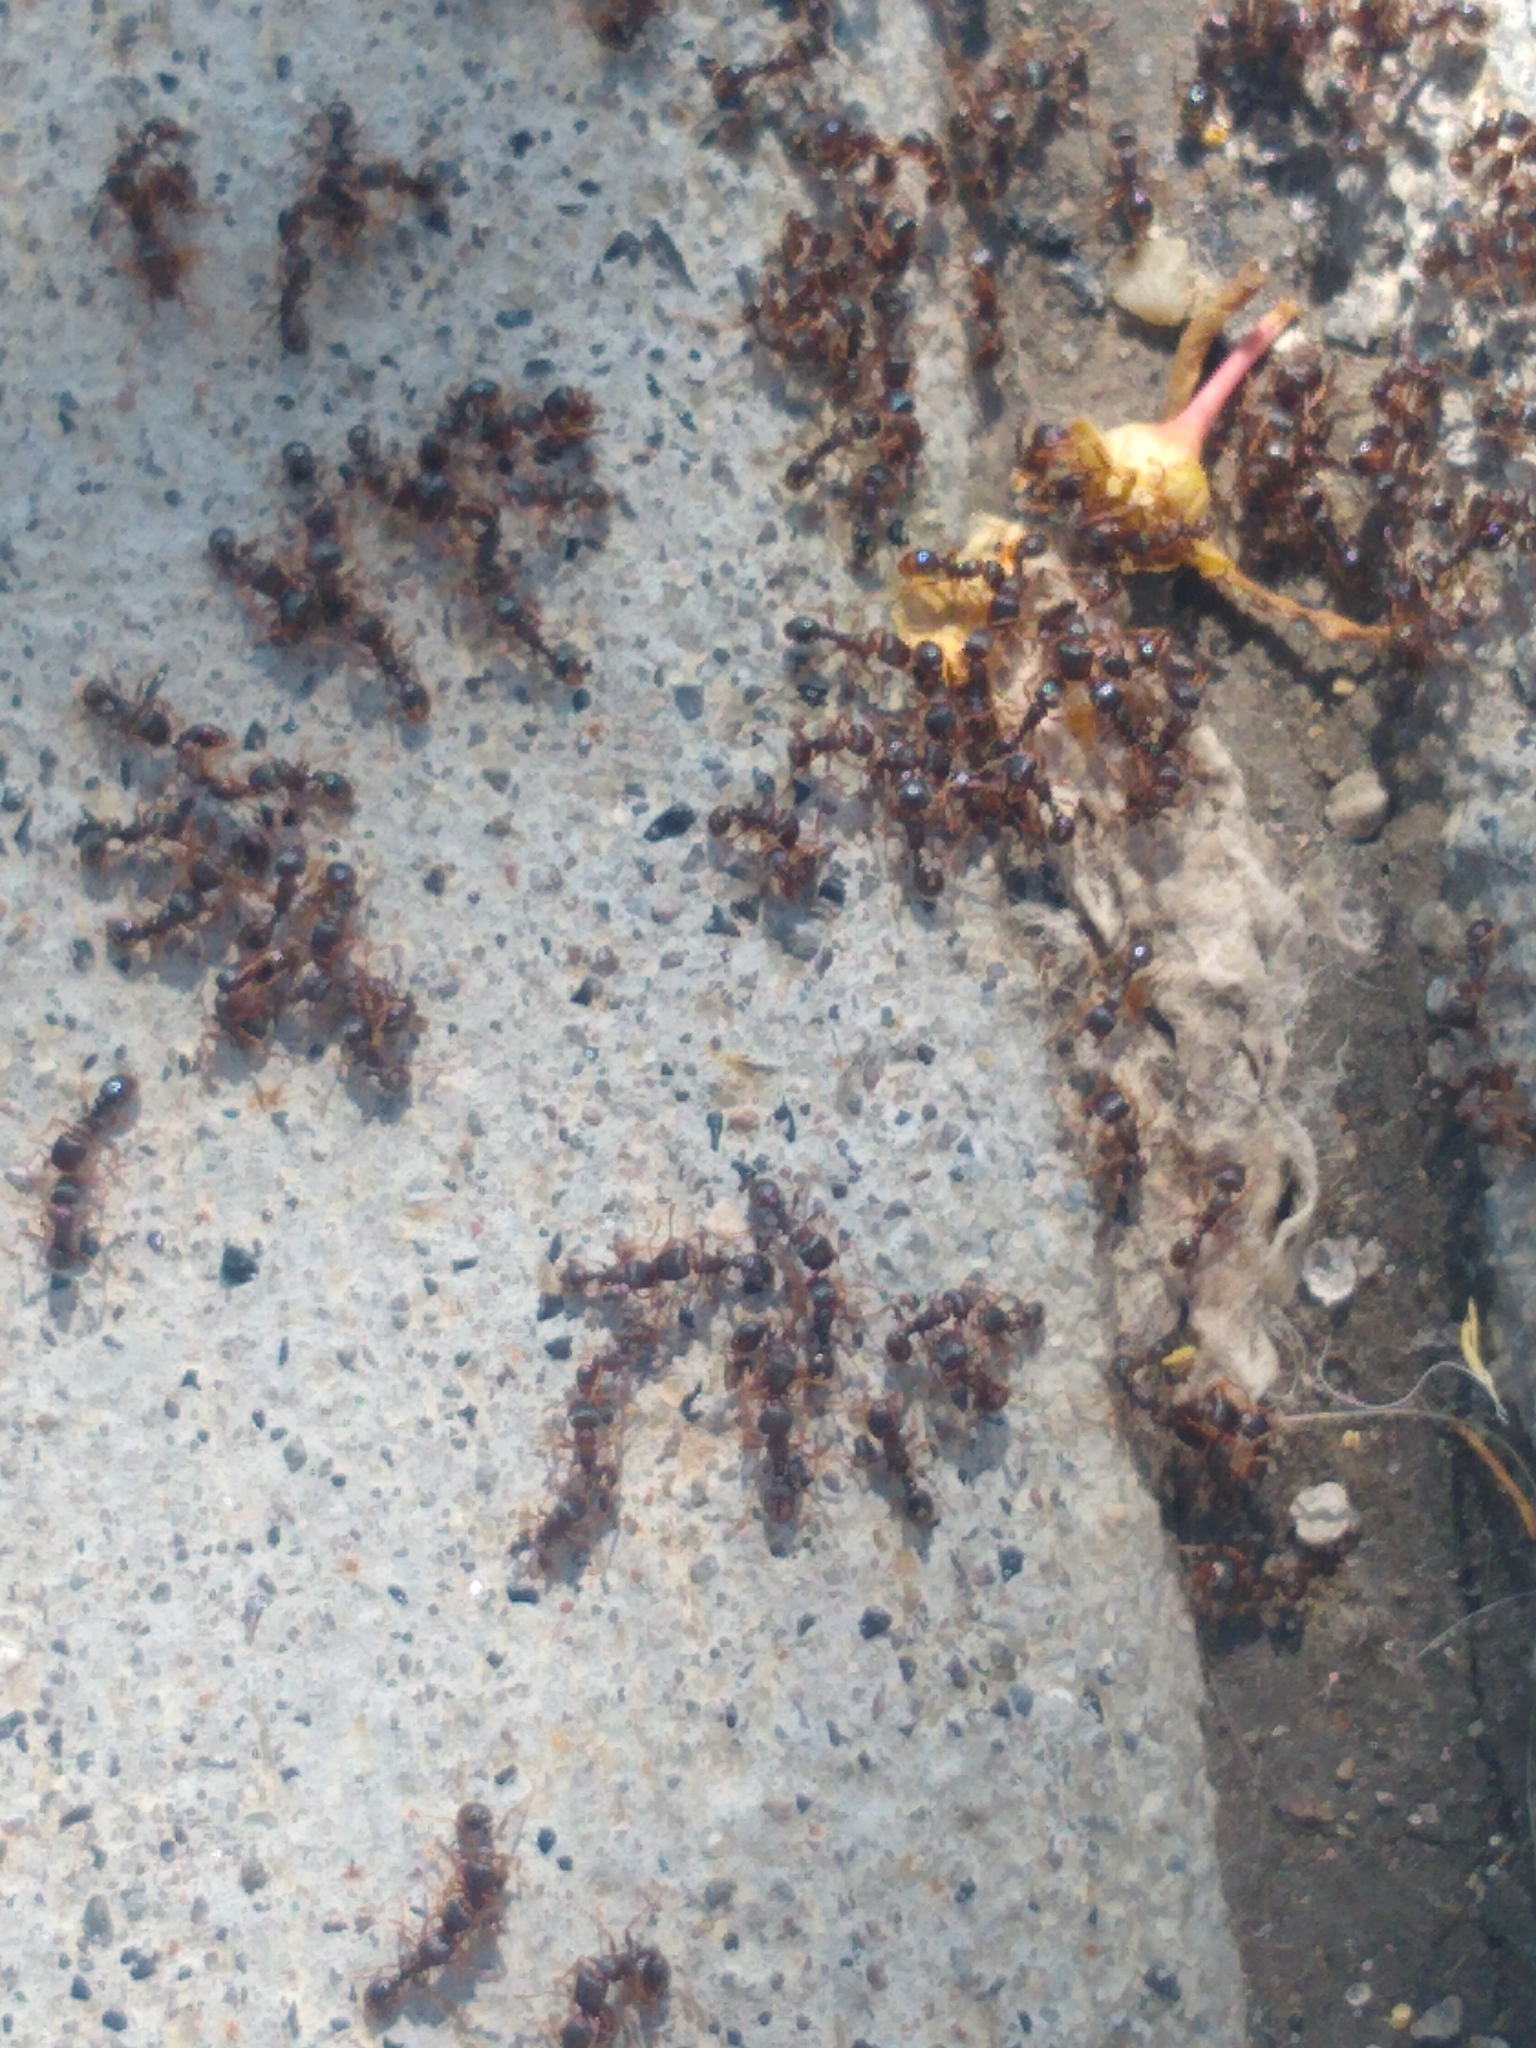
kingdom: Animalia
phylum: Arthropoda
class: Insecta
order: Hymenoptera
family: Formicidae
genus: Tetramorium
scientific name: Tetramorium immigrans
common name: Pavement ant
